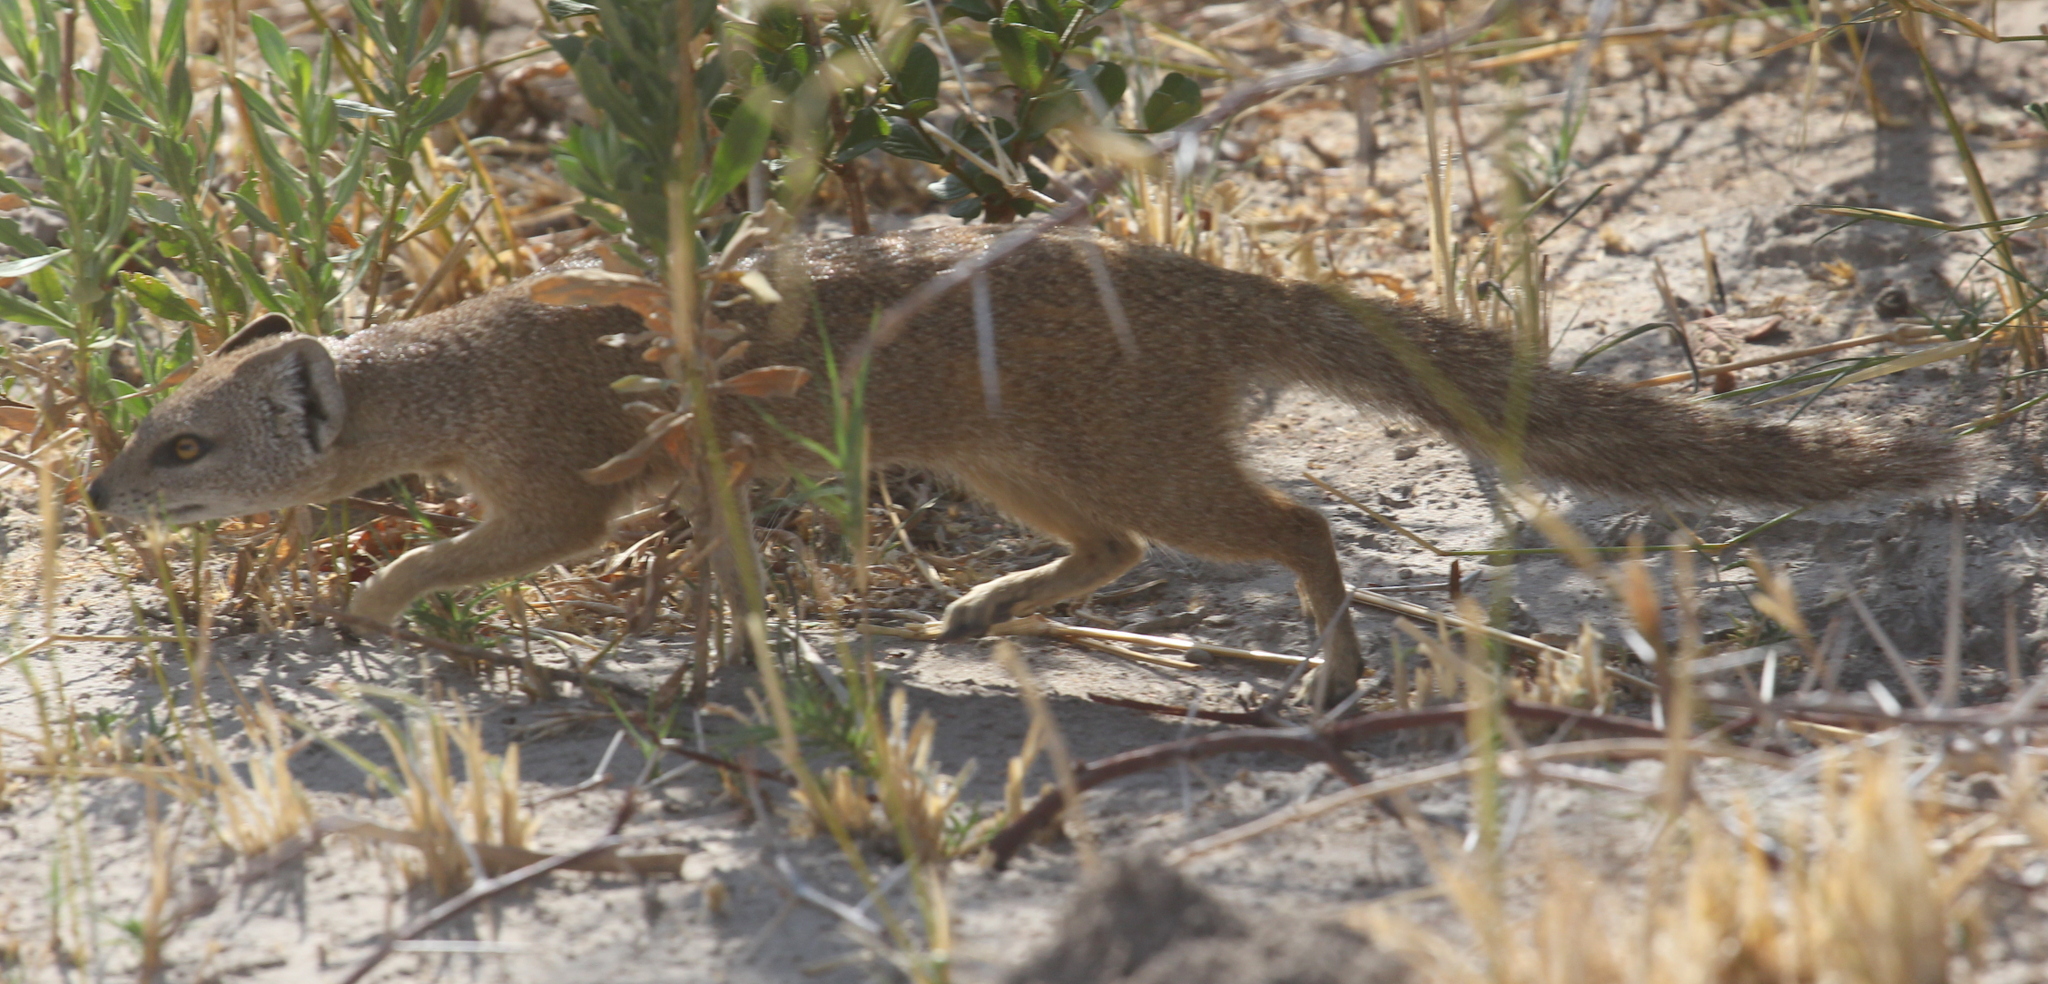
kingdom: Animalia
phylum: Chordata
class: Mammalia
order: Carnivora
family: Herpestidae
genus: Cynictis
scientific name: Cynictis penicillata
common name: Yellow mongoose
